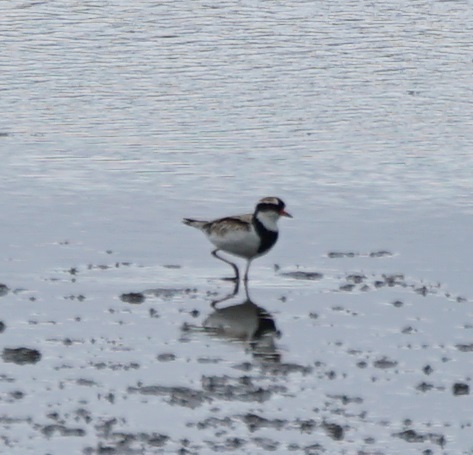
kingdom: Animalia
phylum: Chordata
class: Aves
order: Charadriiformes
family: Charadriidae
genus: Elseyornis
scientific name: Elseyornis melanops
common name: Black-fronted dotterel
